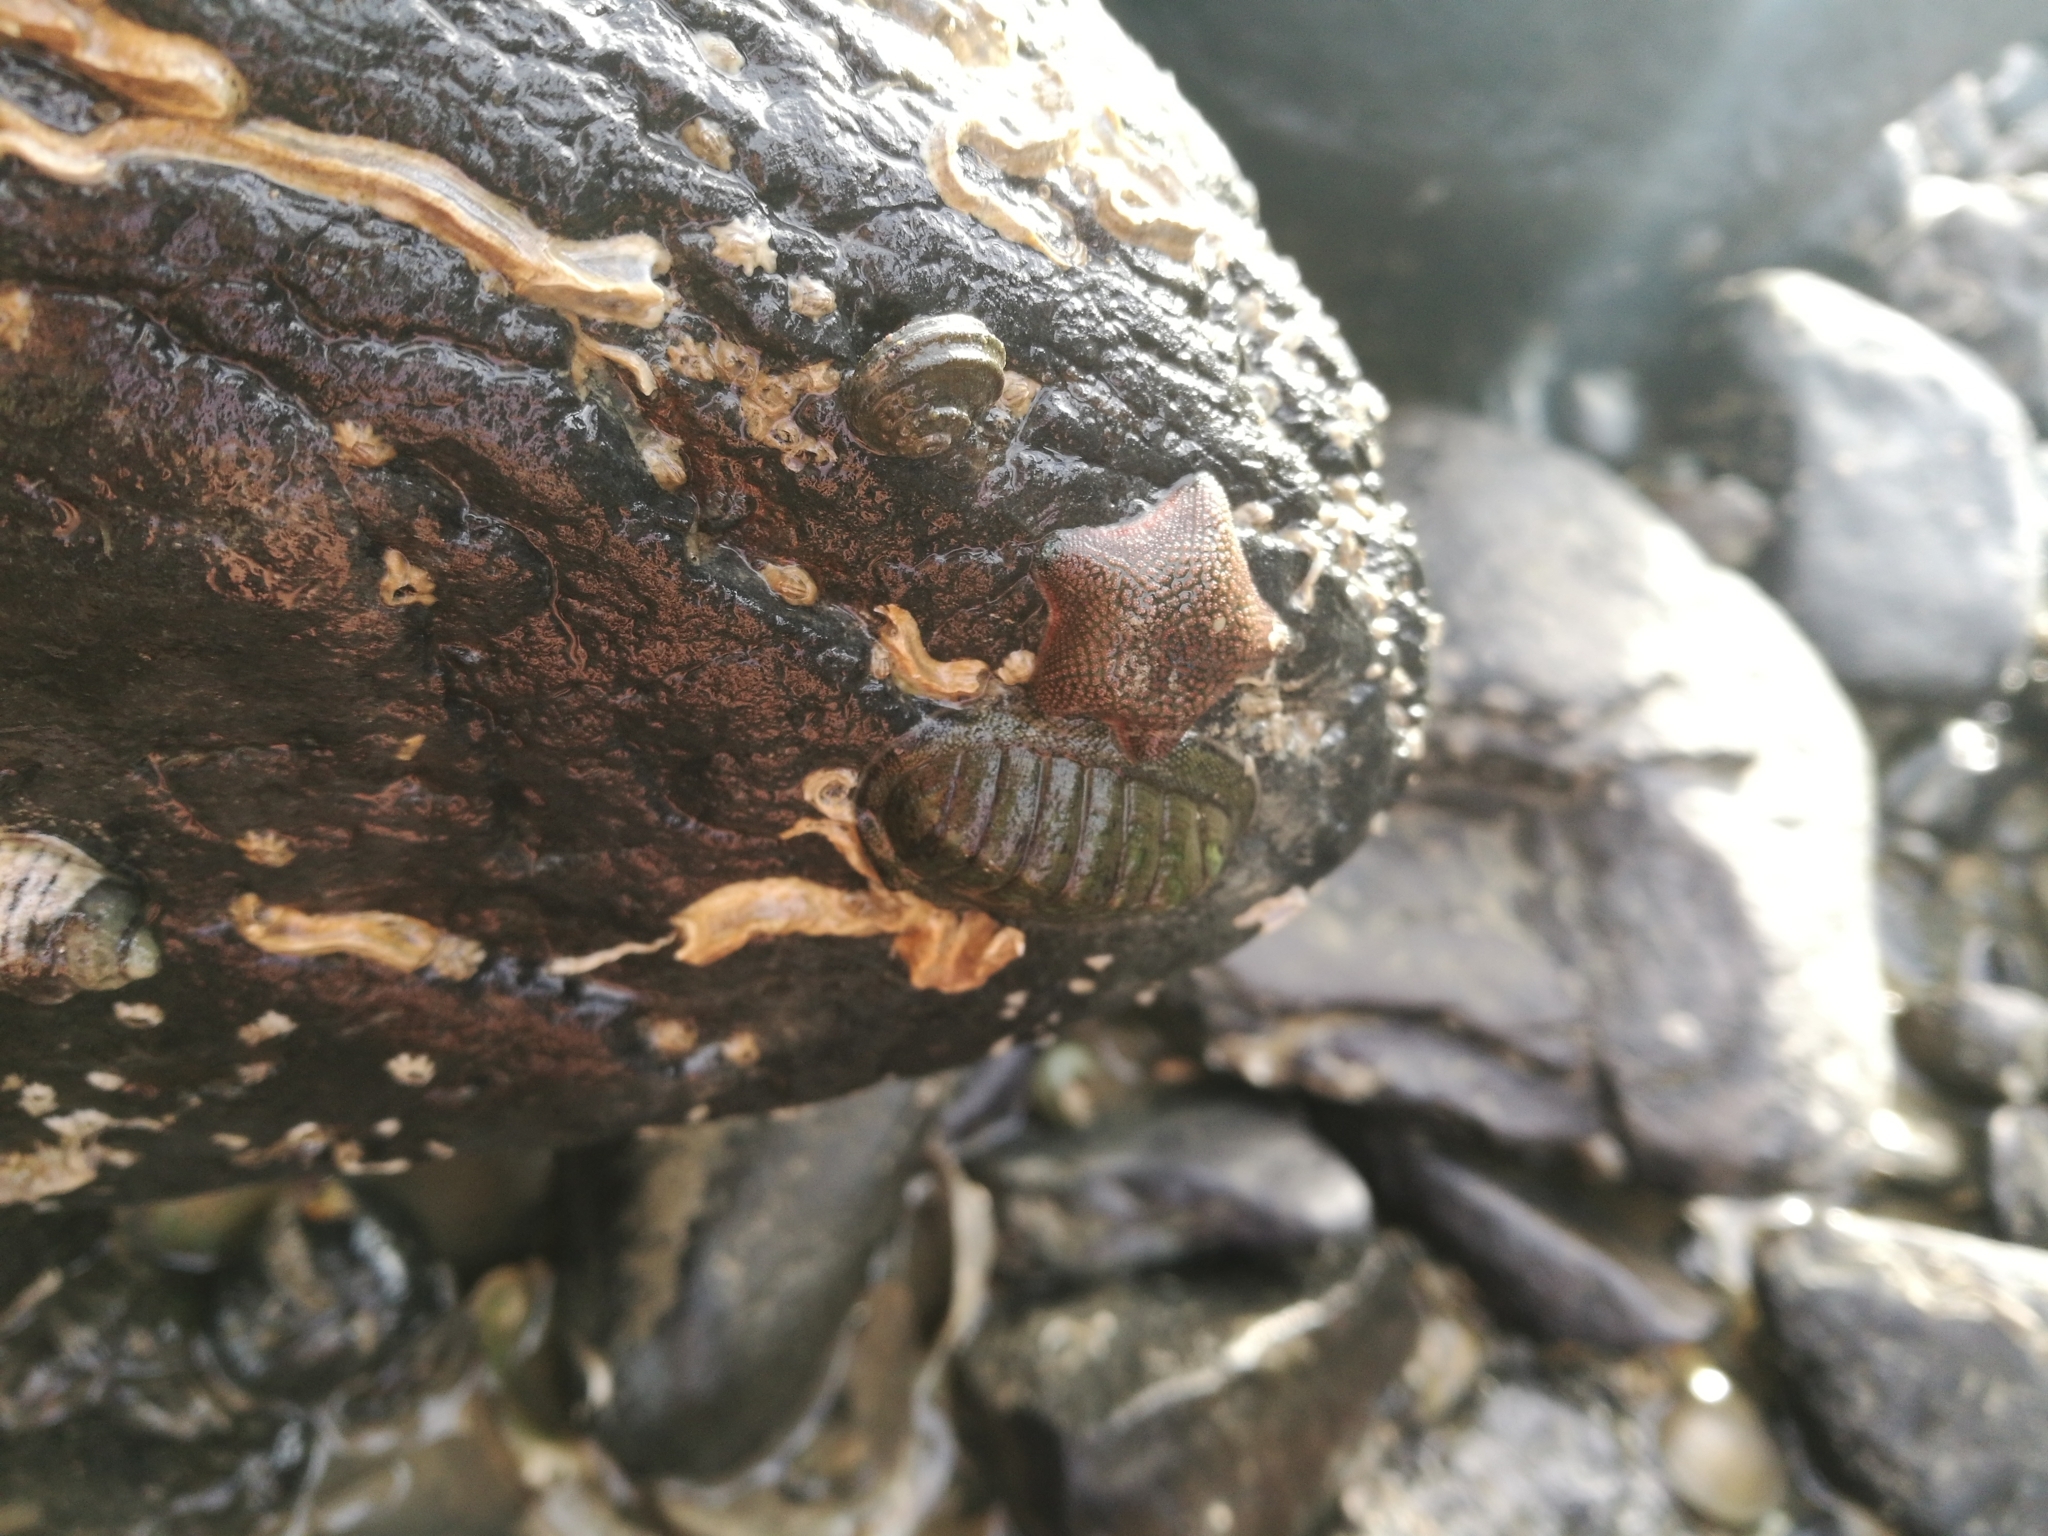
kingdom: Animalia
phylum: Echinodermata
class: Asteroidea
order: Valvatida
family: Asterinidae
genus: Patiriella
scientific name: Patiriella regularis
